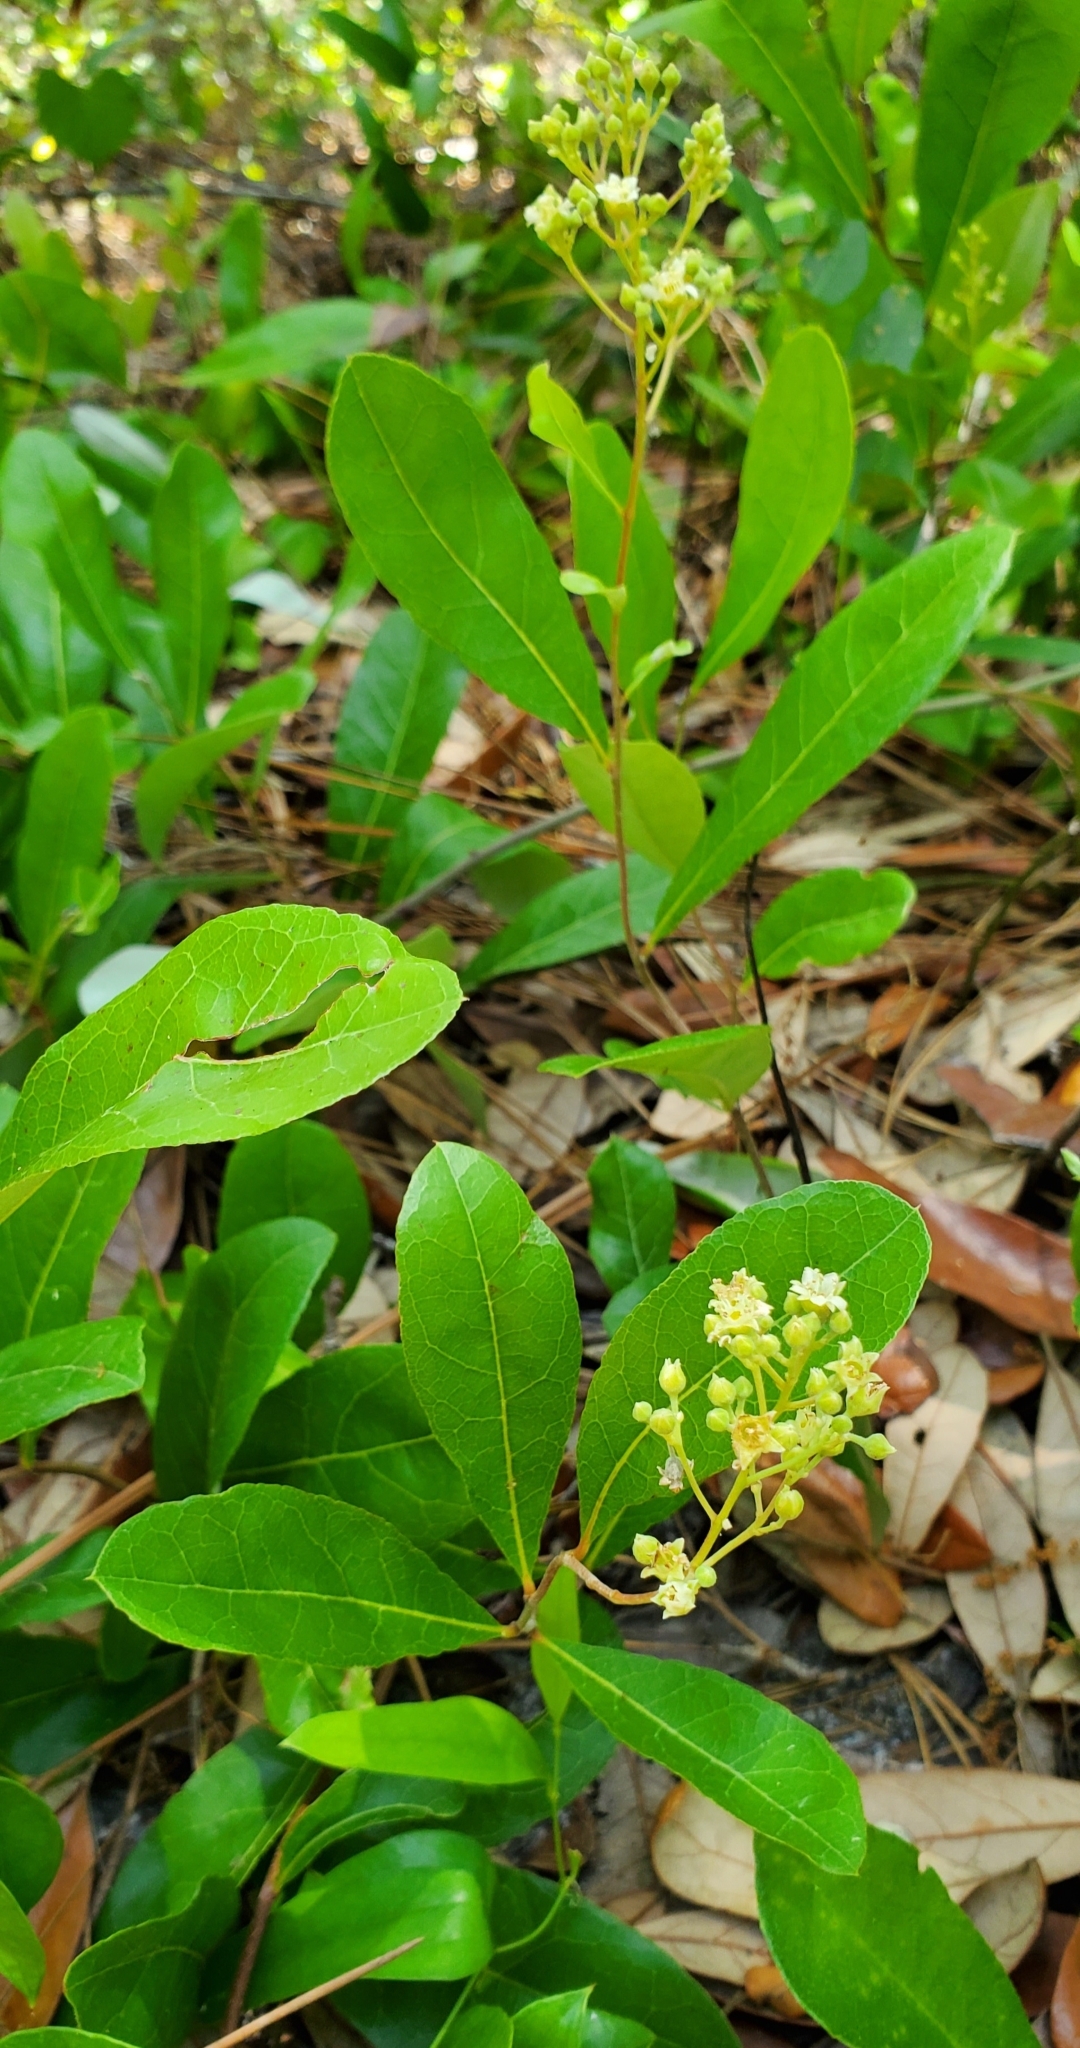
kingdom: Plantae
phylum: Tracheophyta
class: Magnoliopsida
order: Malpighiales
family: Chrysobalanaceae
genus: Geobalanus
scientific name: Geobalanus oblongifolius
